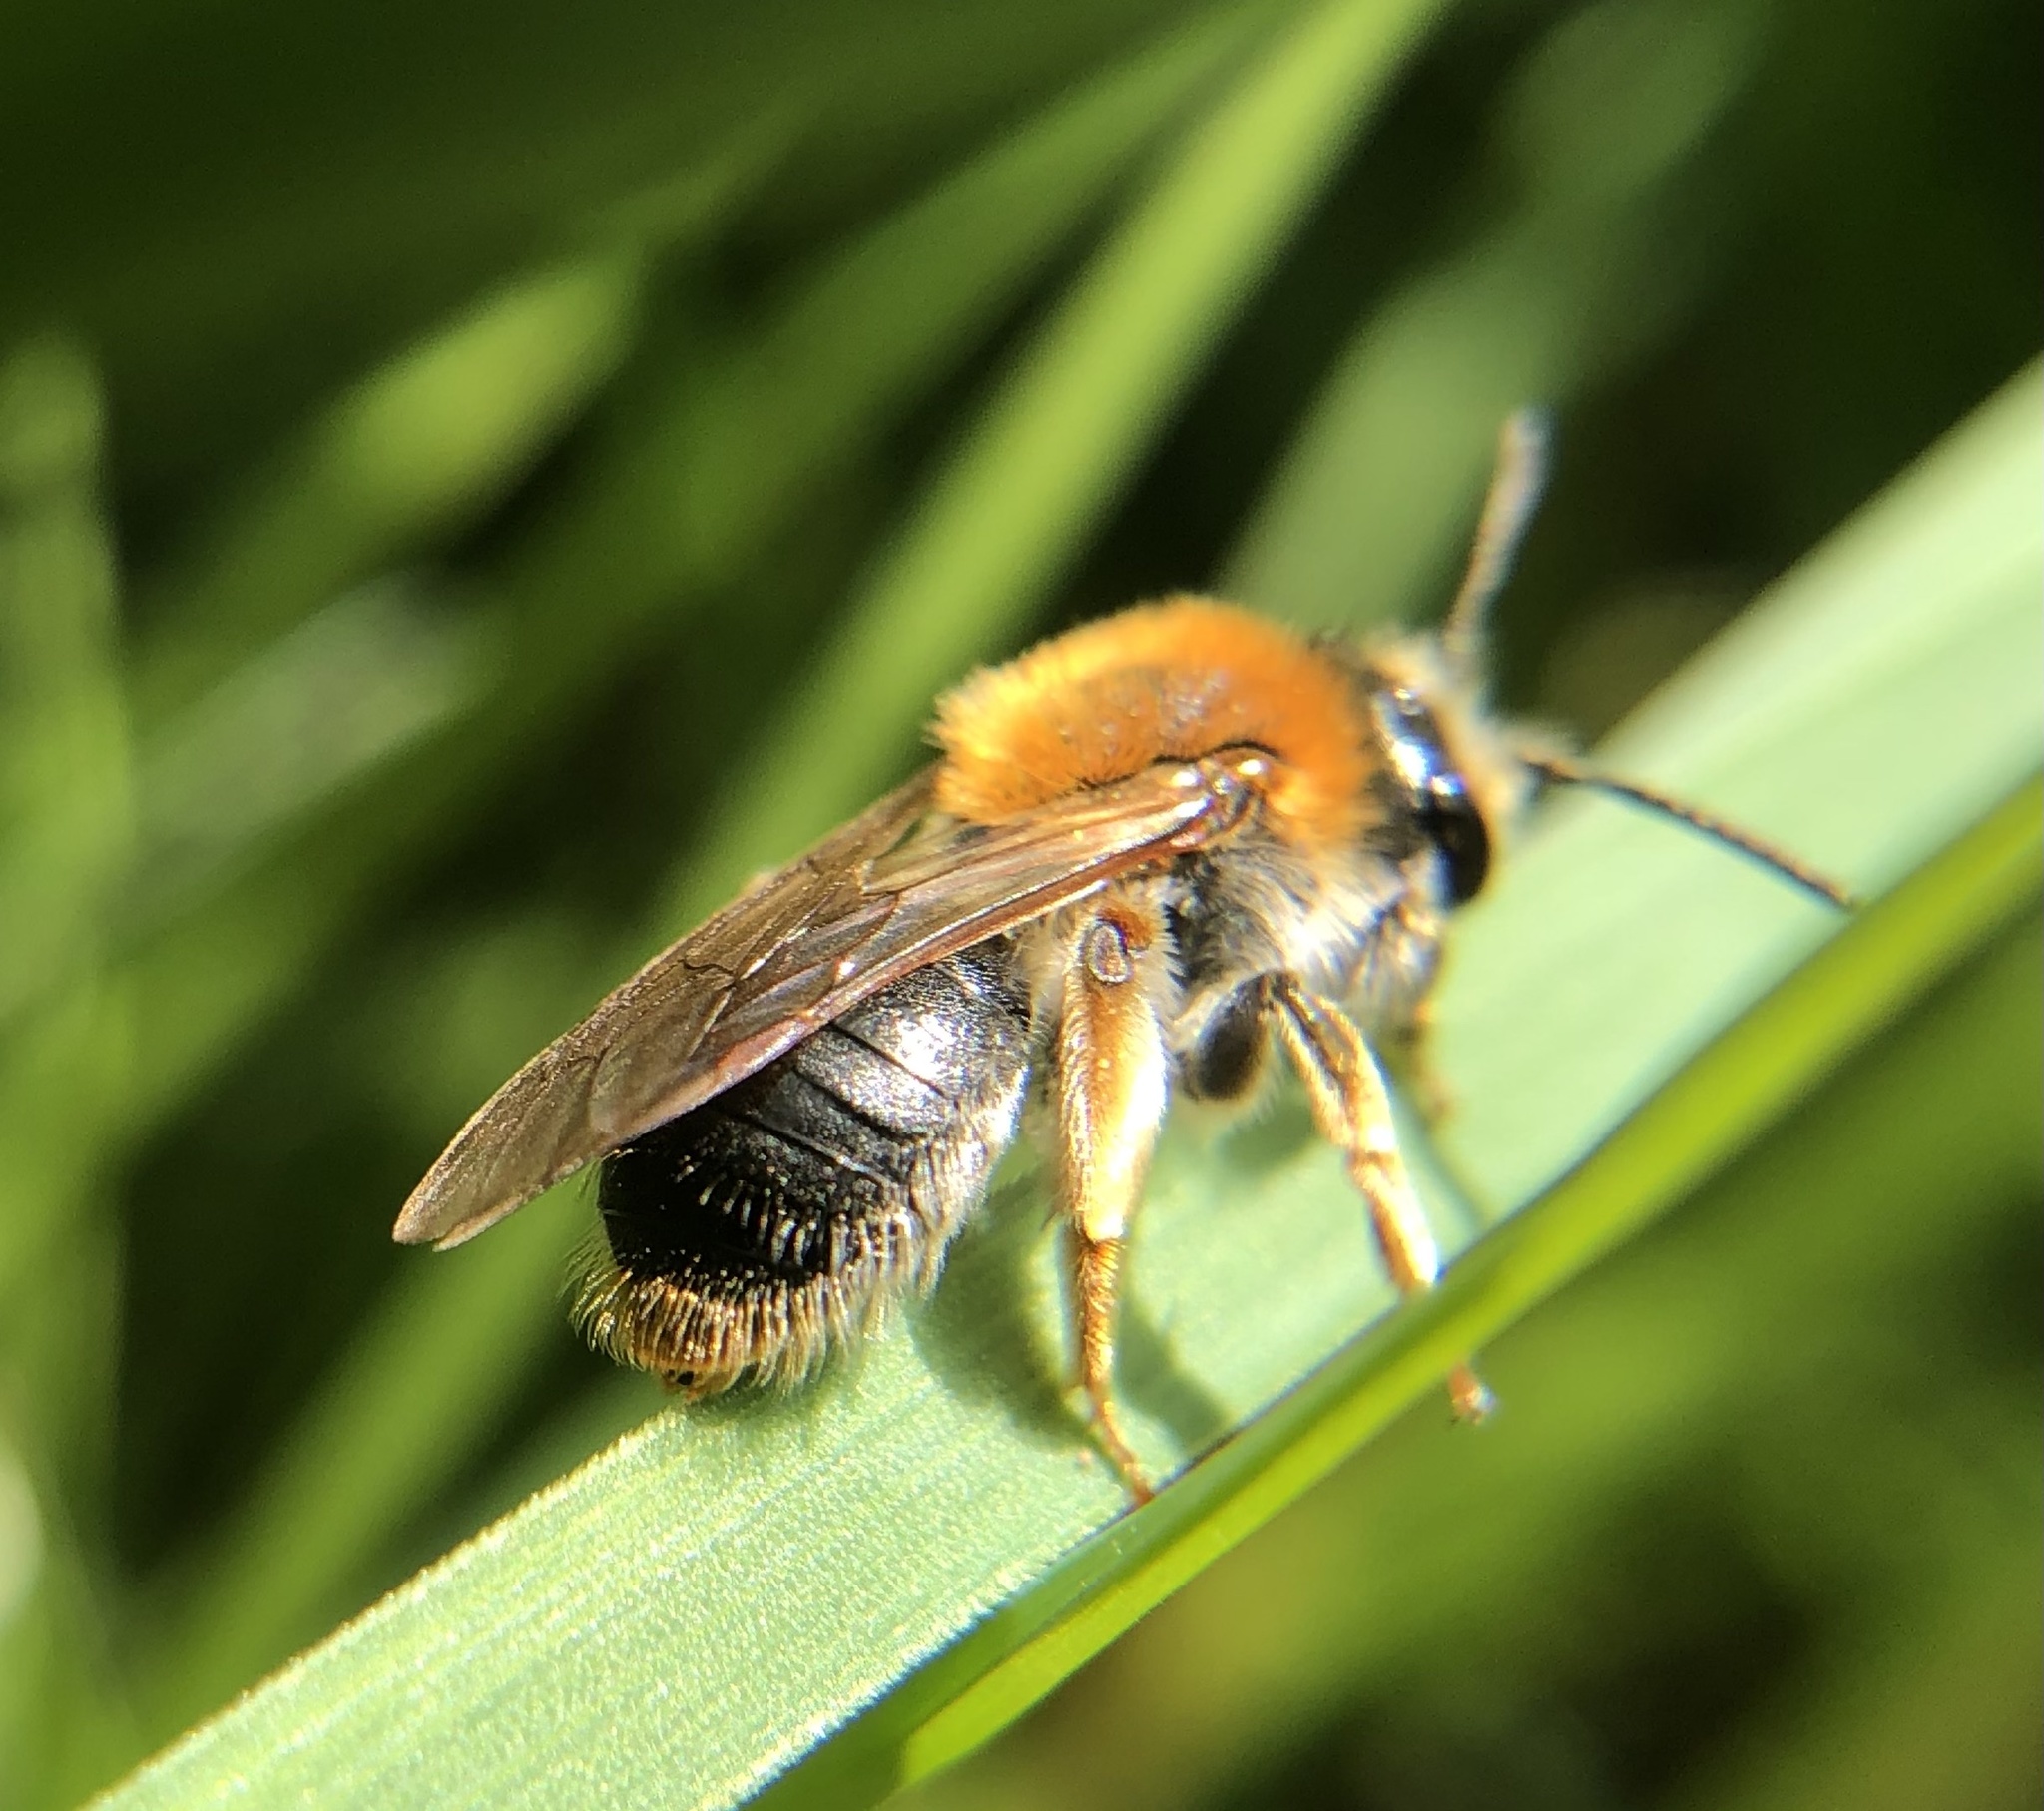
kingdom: Animalia
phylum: Arthropoda
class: Insecta
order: Hymenoptera
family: Andrenidae
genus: Andrena
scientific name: Andrena haemorrhoa
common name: Early mining bee
